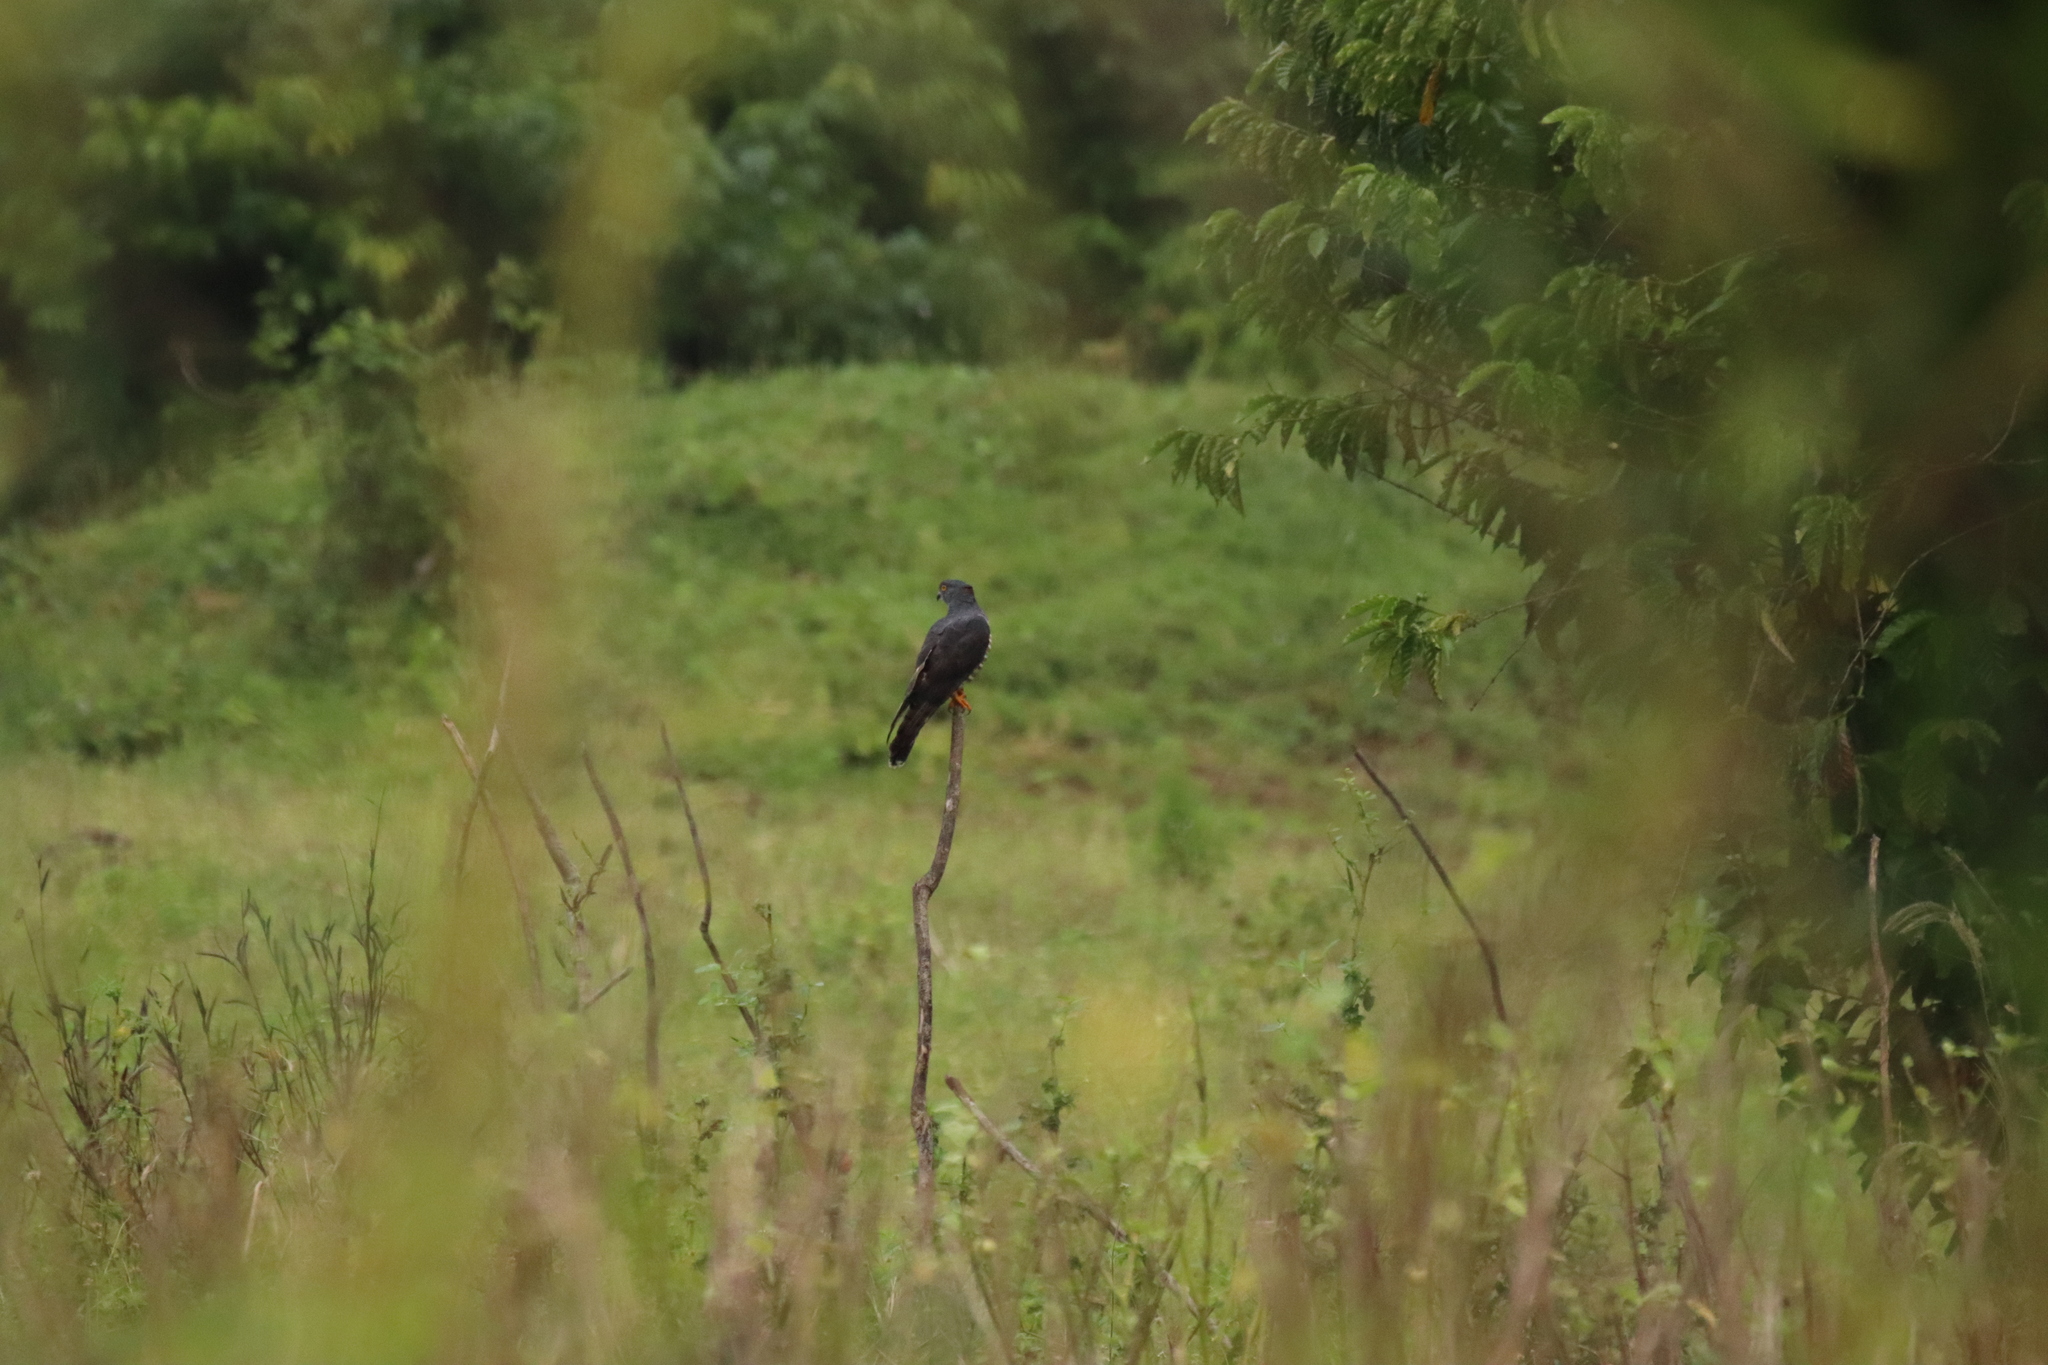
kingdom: Animalia
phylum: Chordata
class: Aves
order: Accipitriformes
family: Accipitridae
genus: Aviceda
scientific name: Aviceda cuculoides
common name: African cuckoo-hawk
